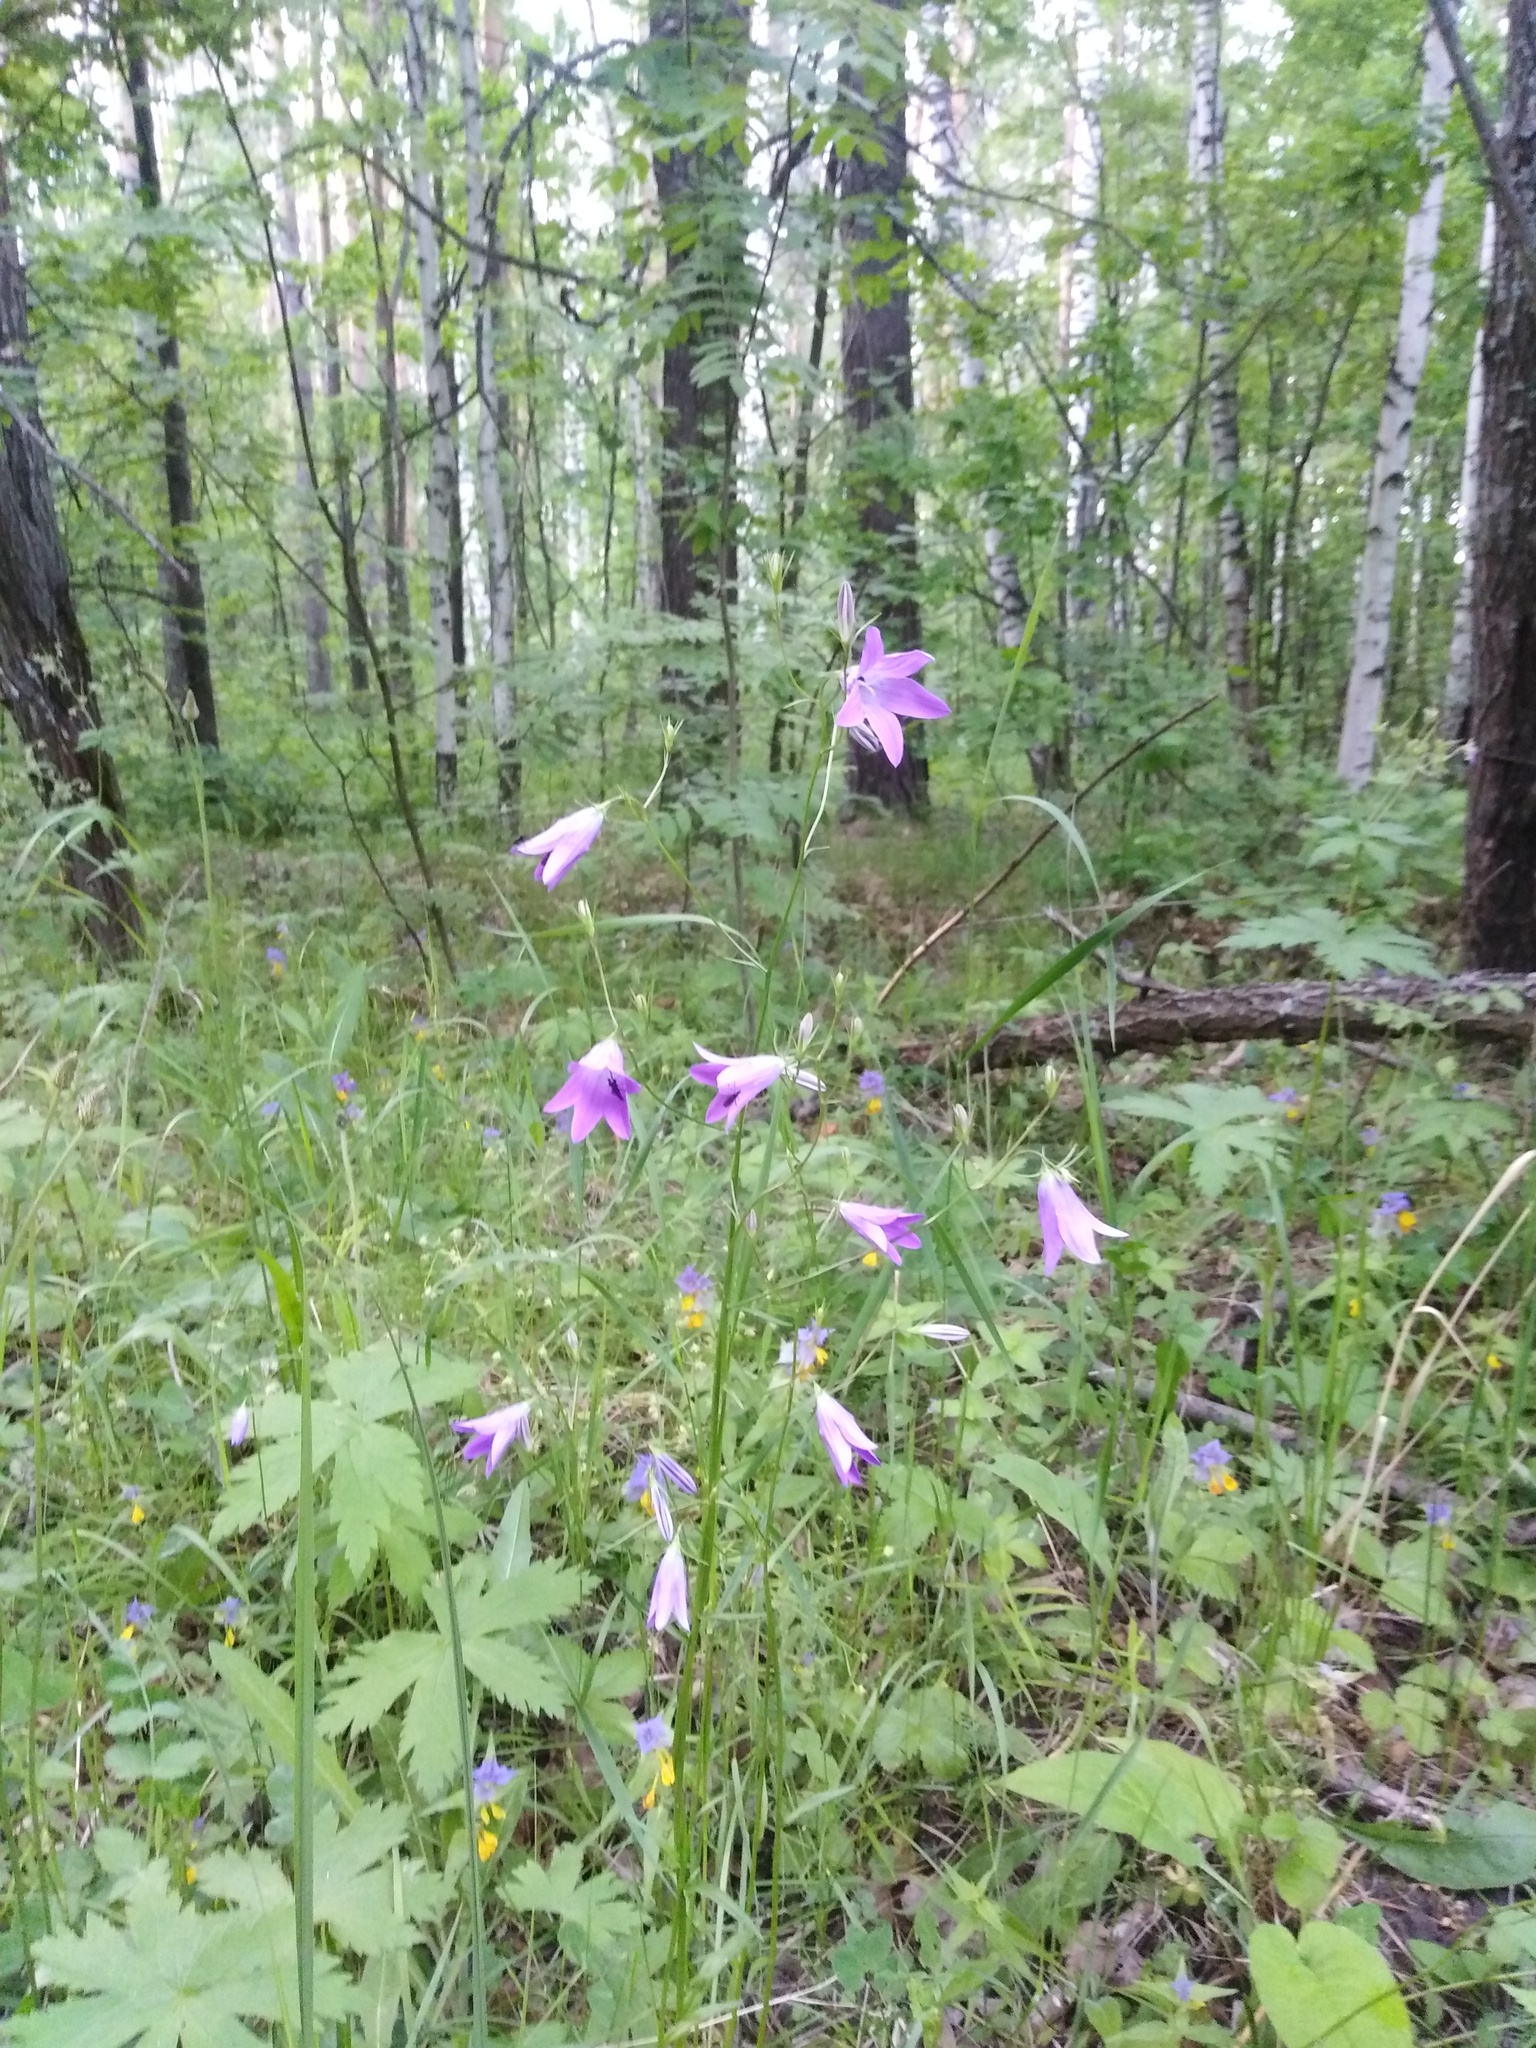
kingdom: Plantae
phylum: Tracheophyta
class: Magnoliopsida
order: Asterales
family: Campanulaceae
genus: Campanula
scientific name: Campanula patula
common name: Spreading bellflower
